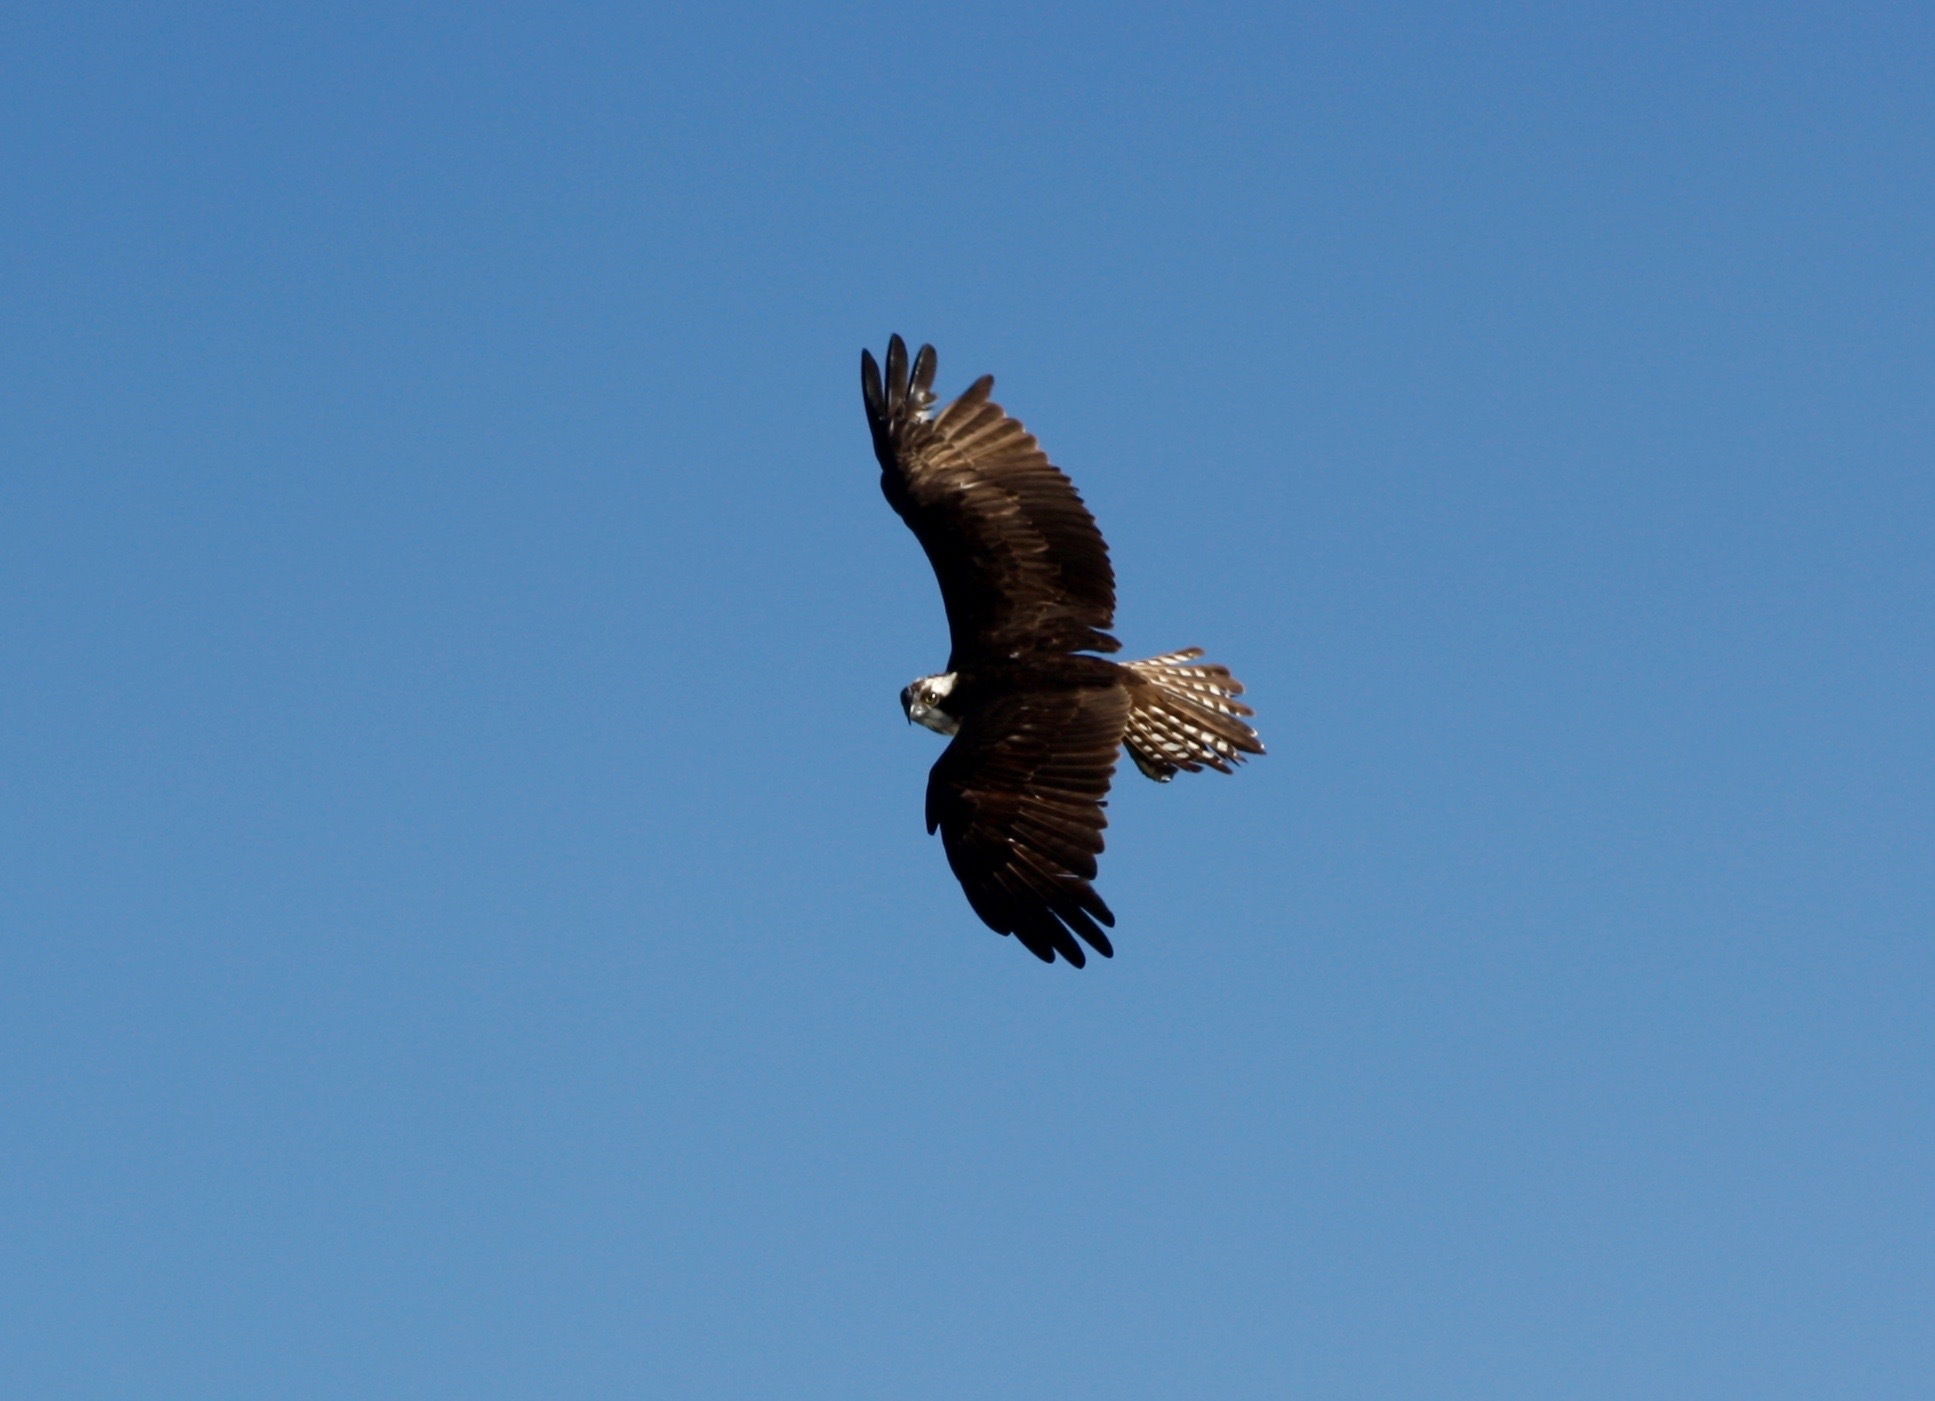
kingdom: Animalia
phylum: Chordata
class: Aves
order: Accipitriformes
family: Pandionidae
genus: Pandion
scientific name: Pandion haliaetus
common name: Osprey
